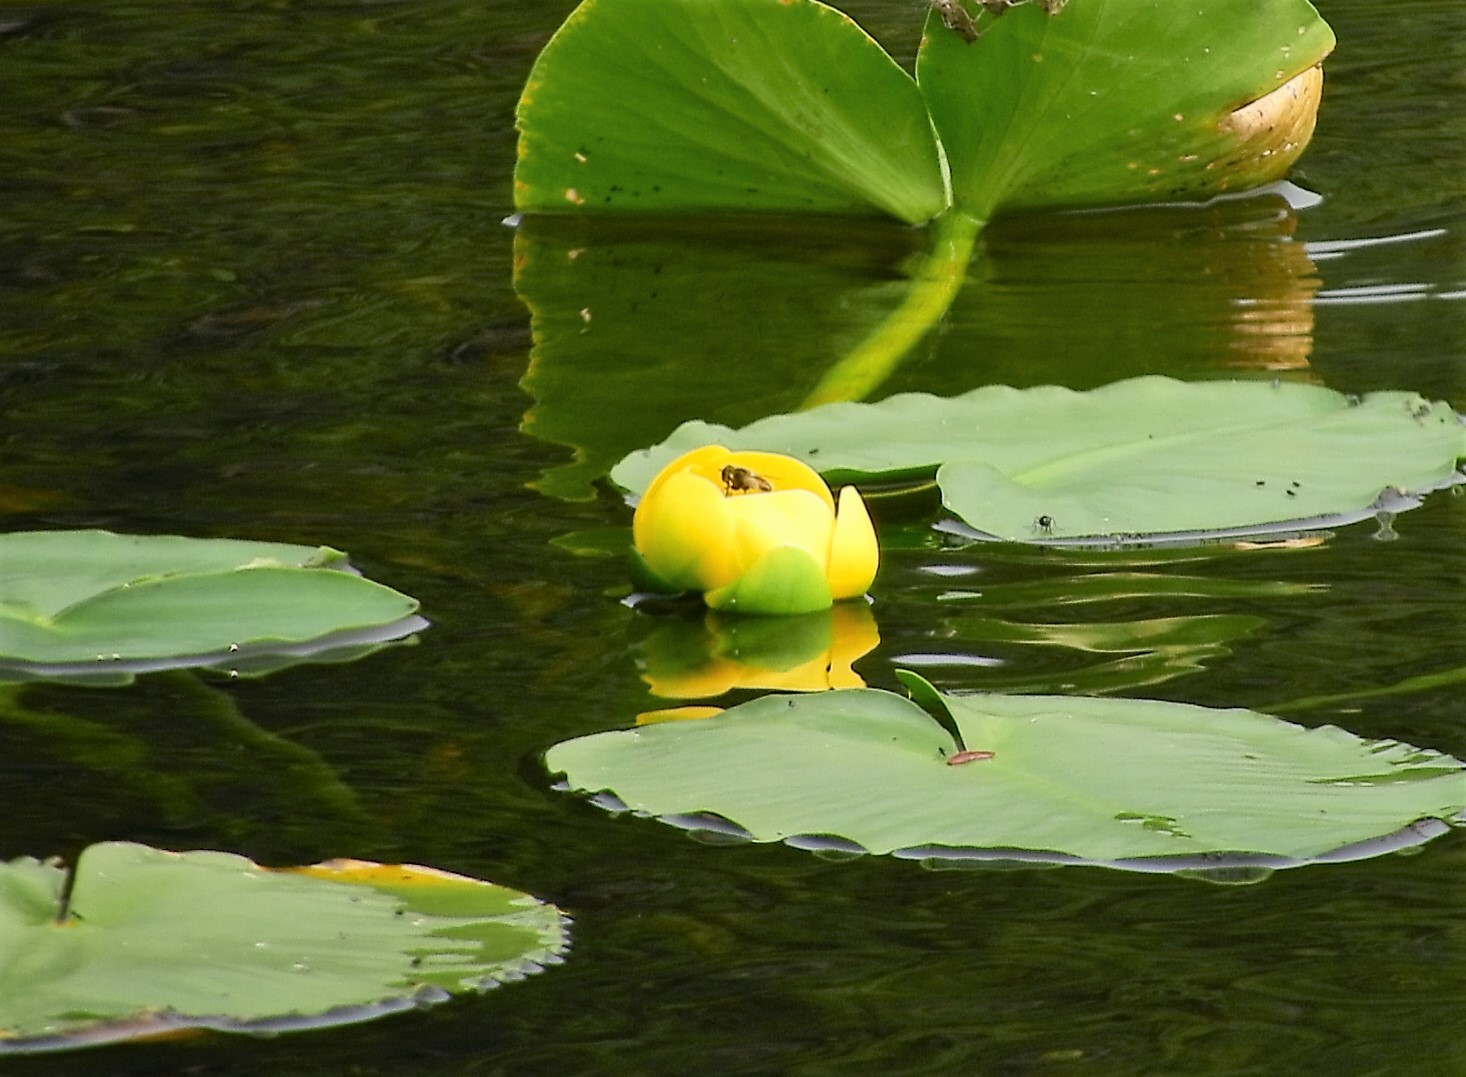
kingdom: Plantae
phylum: Tracheophyta
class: Magnoliopsida
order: Nymphaeales
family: Nymphaeaceae
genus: Nuphar
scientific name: Nuphar polysepala
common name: Rocky mountain cow-lily
